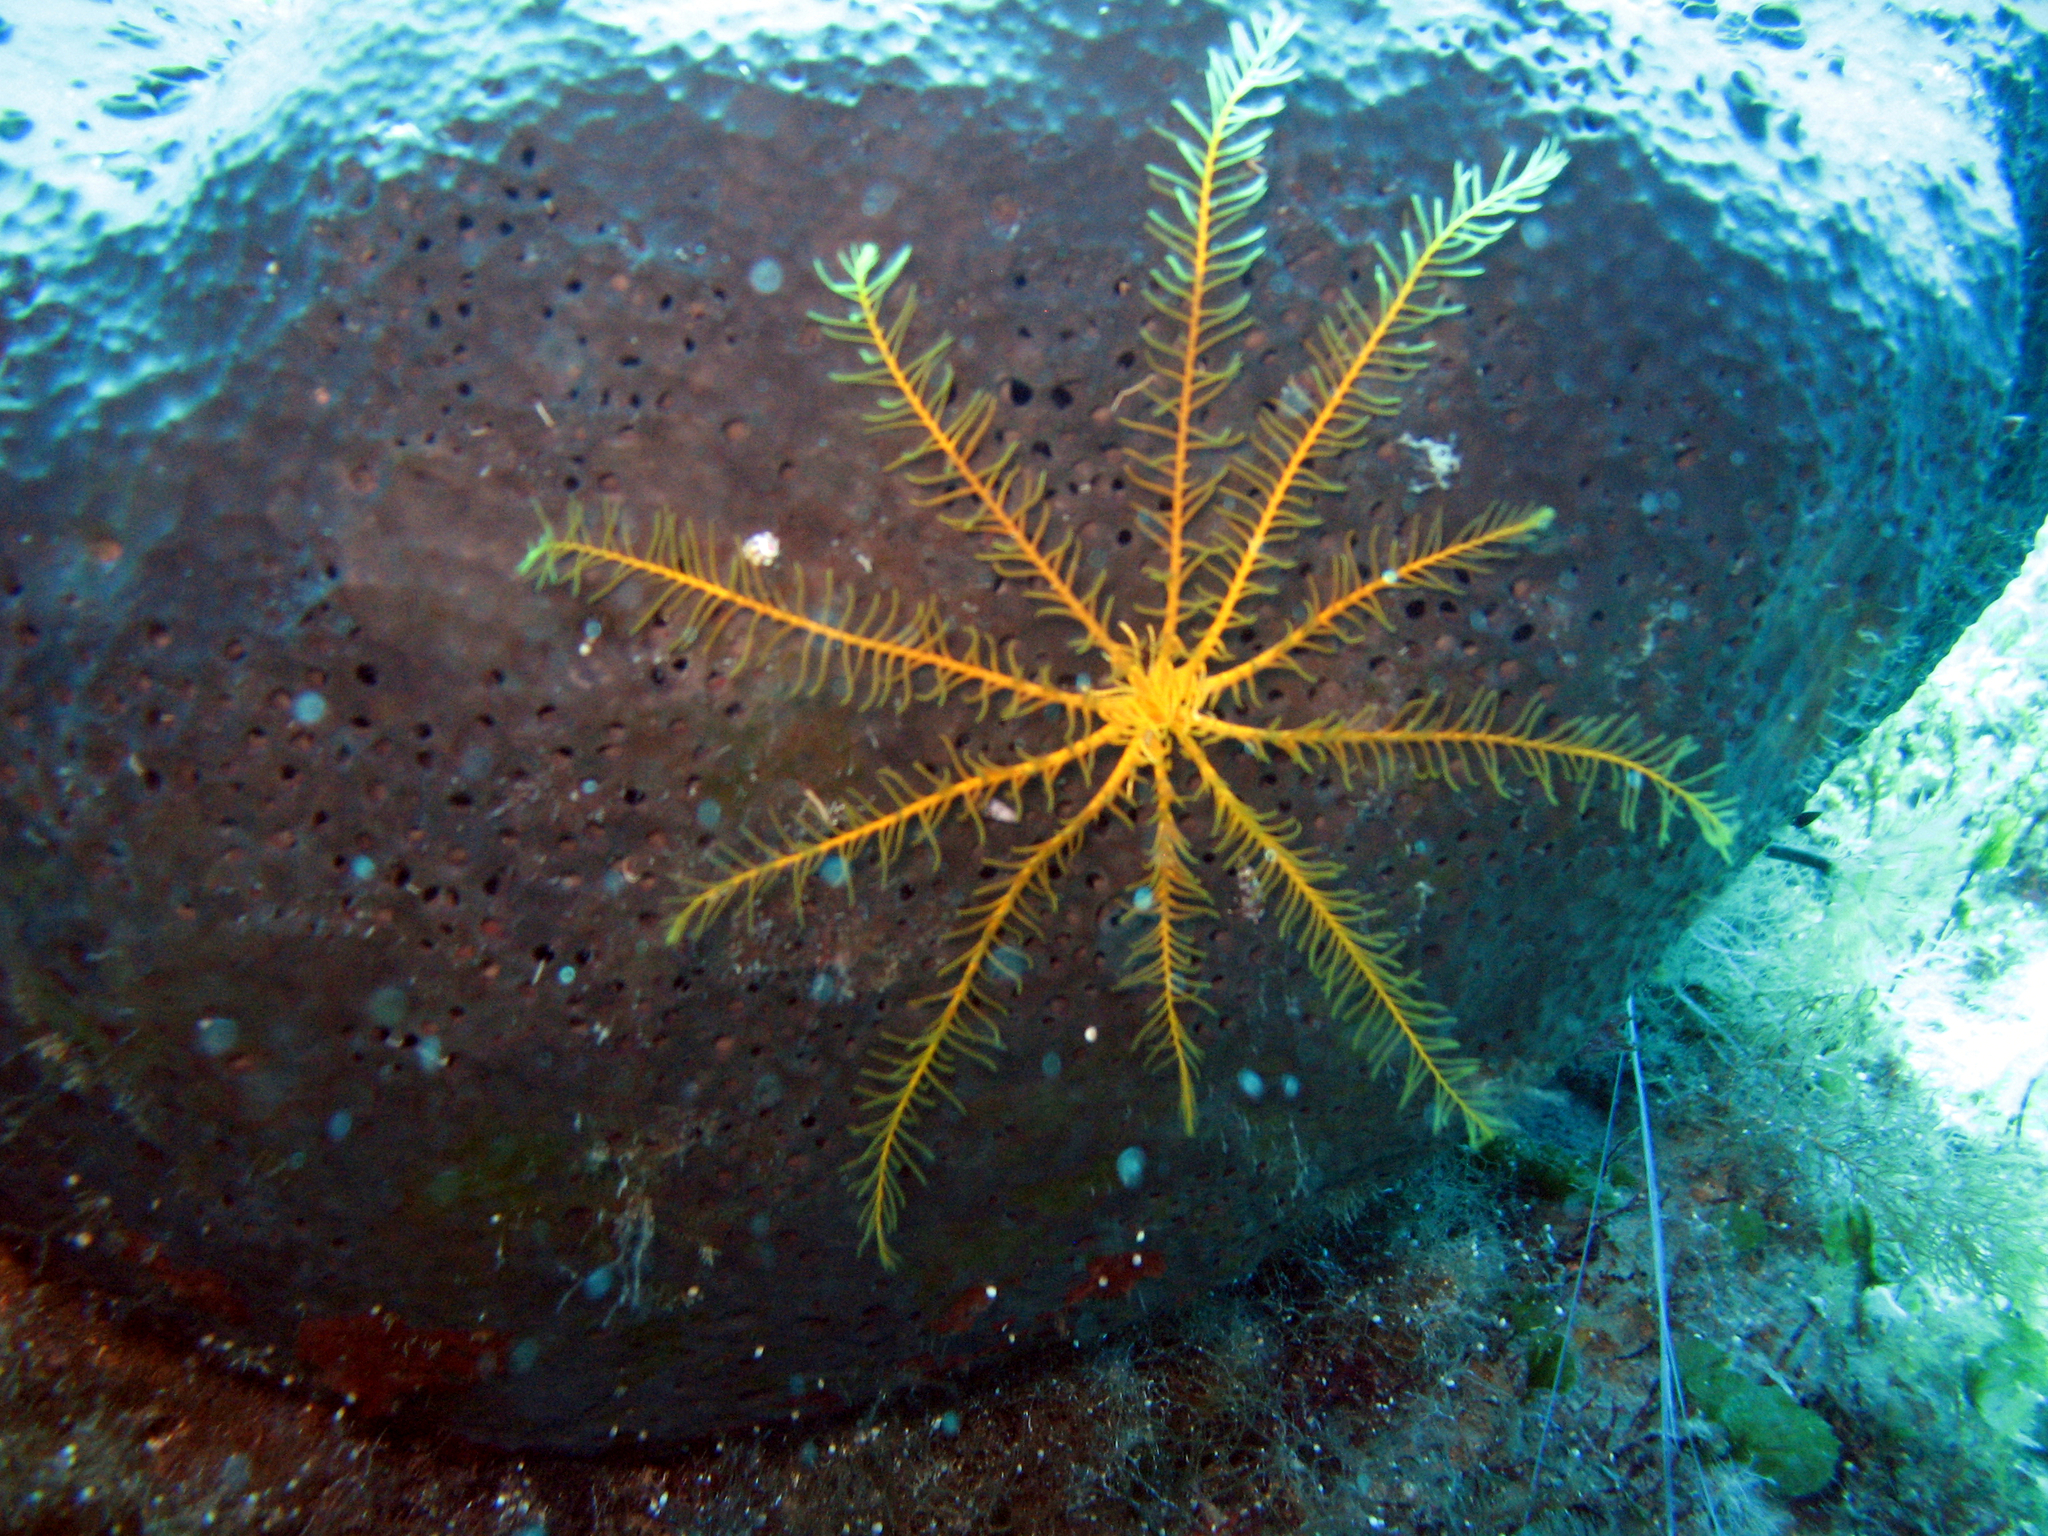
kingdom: Animalia
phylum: Echinodermata
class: Crinoidea
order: Comatulida
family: Antedonidae
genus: Antedon
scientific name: Antedon mediterranea
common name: Feather star
